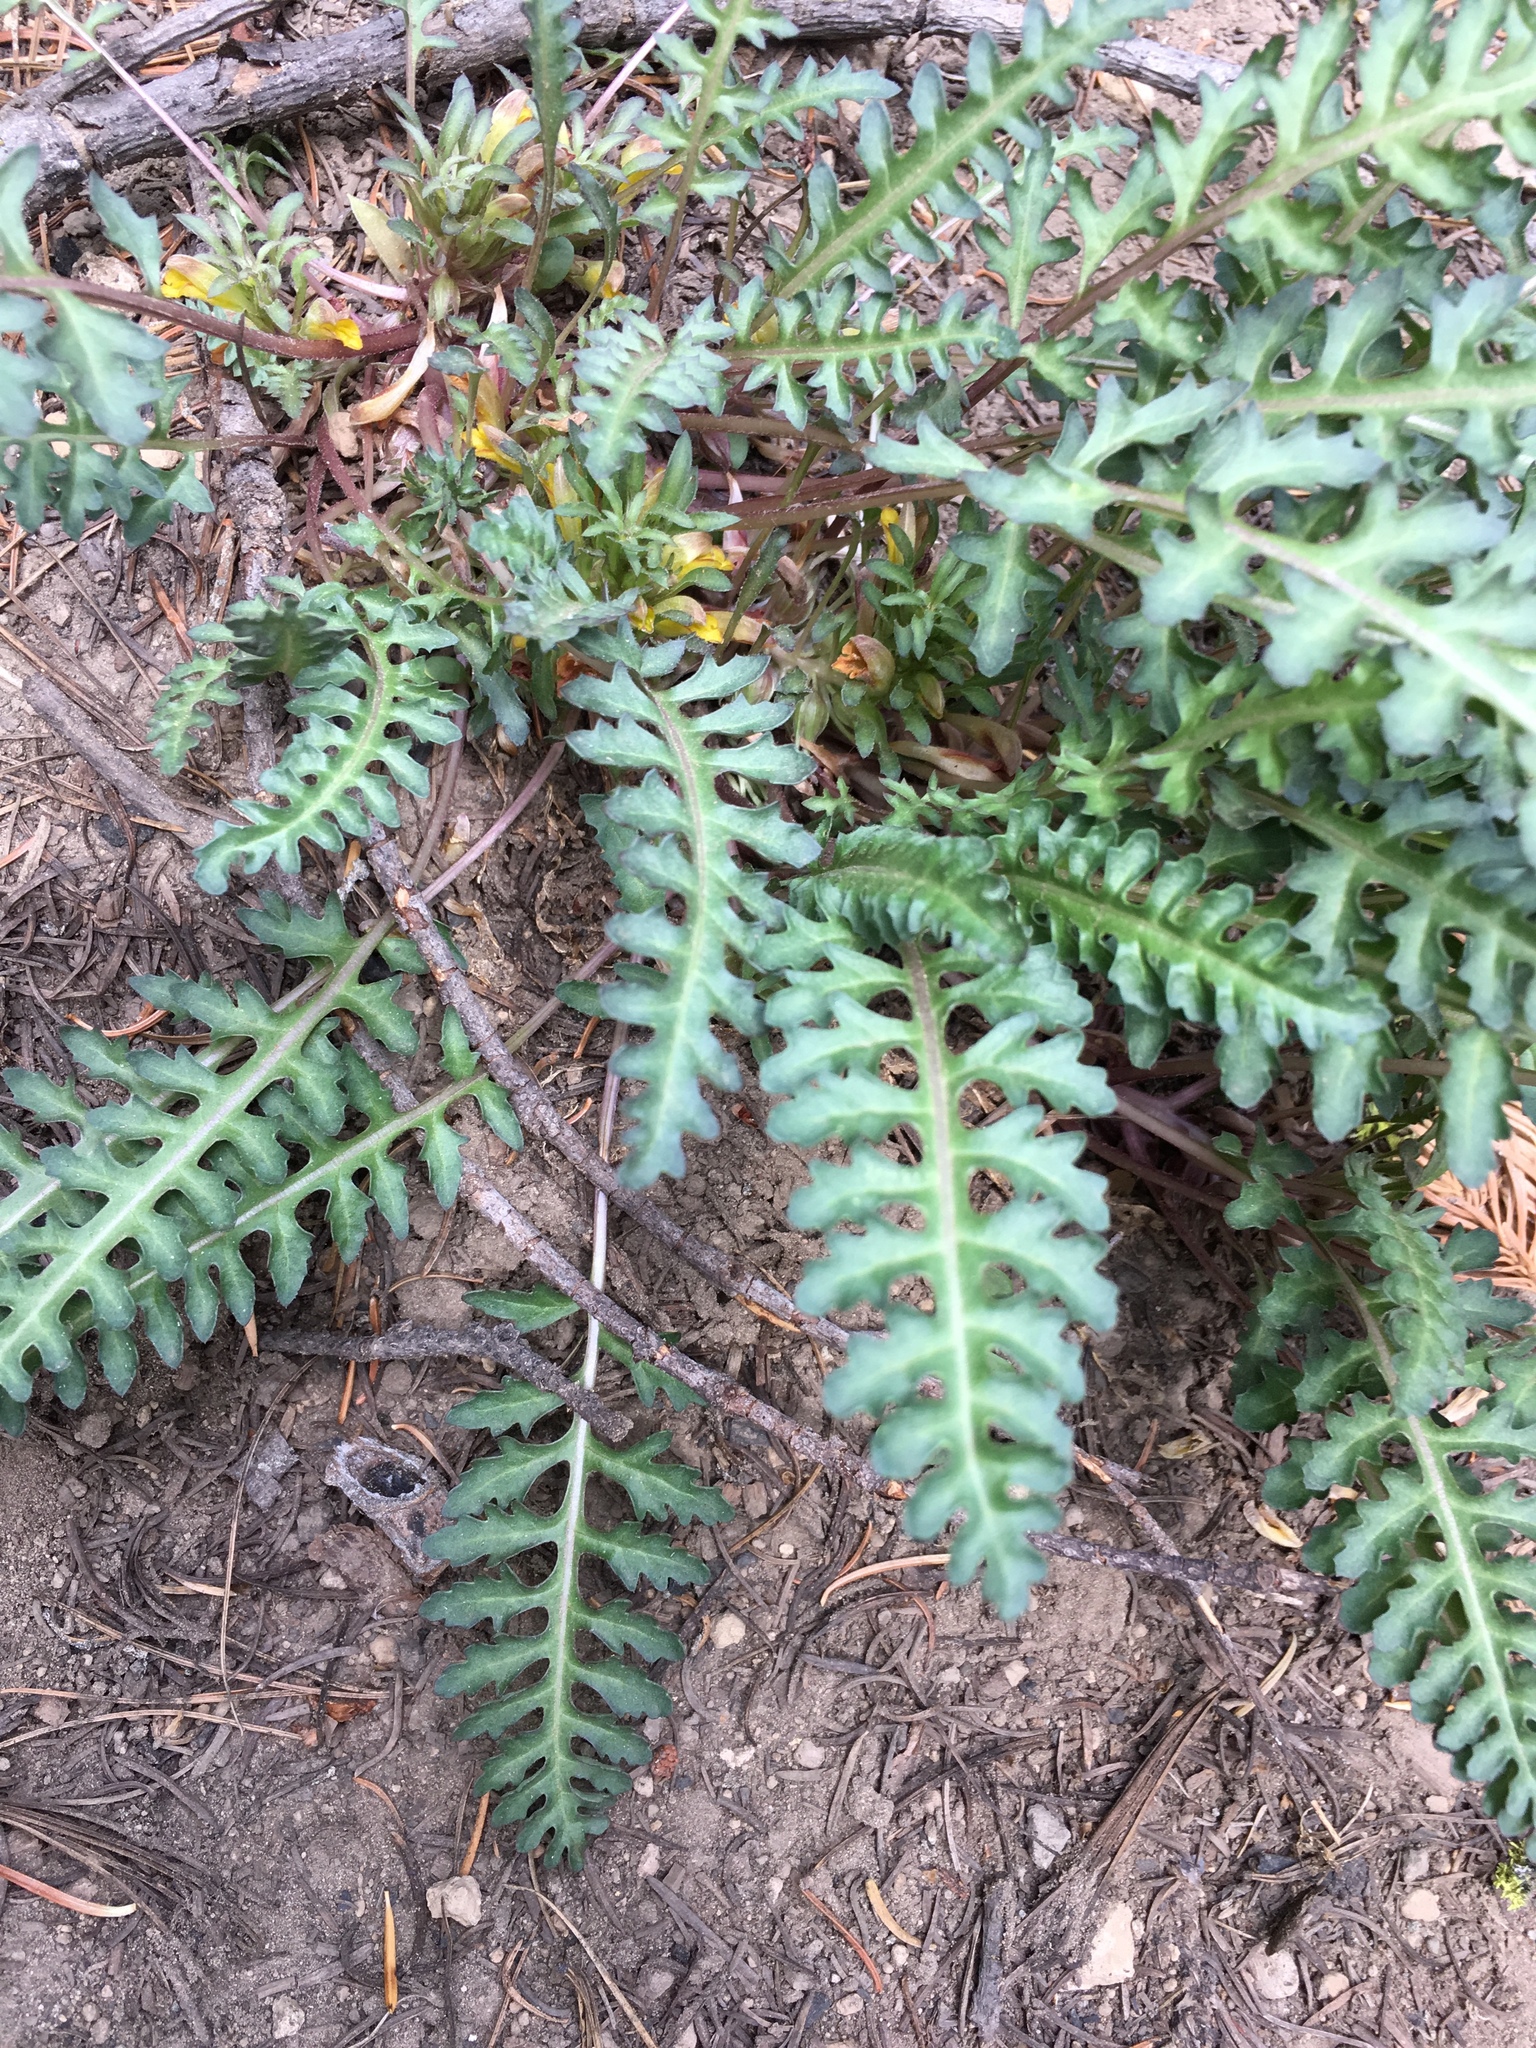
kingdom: Plantae
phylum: Tracheophyta
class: Magnoliopsida
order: Lamiales
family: Orobanchaceae
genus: Pedicularis
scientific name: Pedicularis semibarbata
